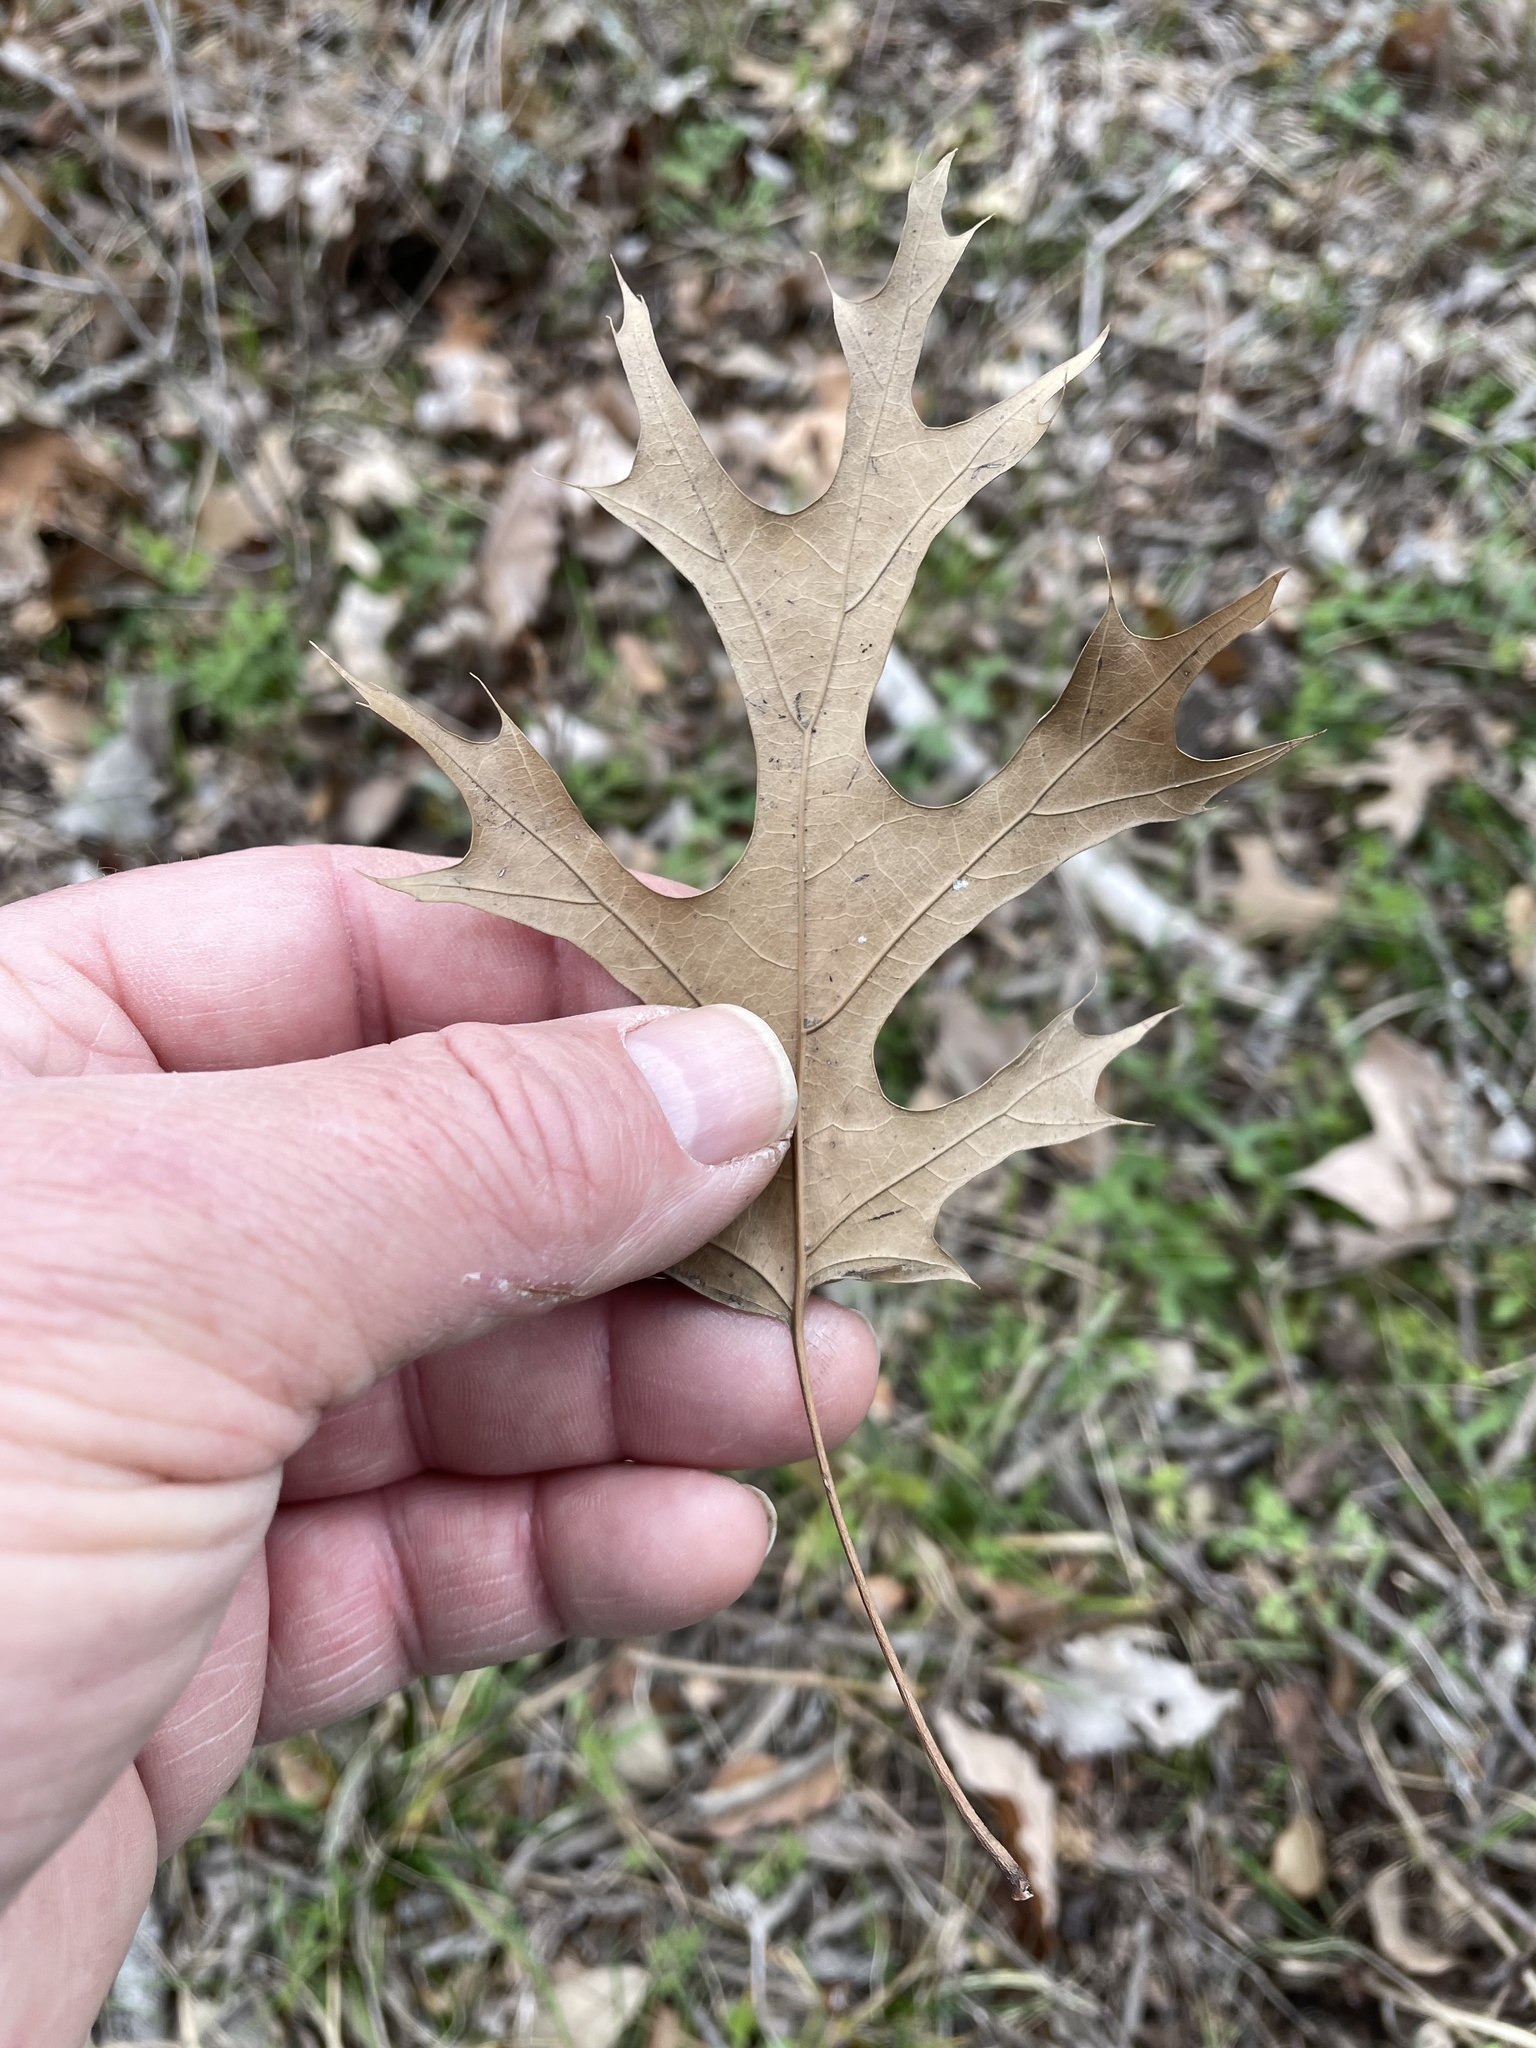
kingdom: Plantae
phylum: Tracheophyta
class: Magnoliopsida
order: Fagales
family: Fagaceae
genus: Quercus
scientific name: Quercus shumardii
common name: Shumard oak
